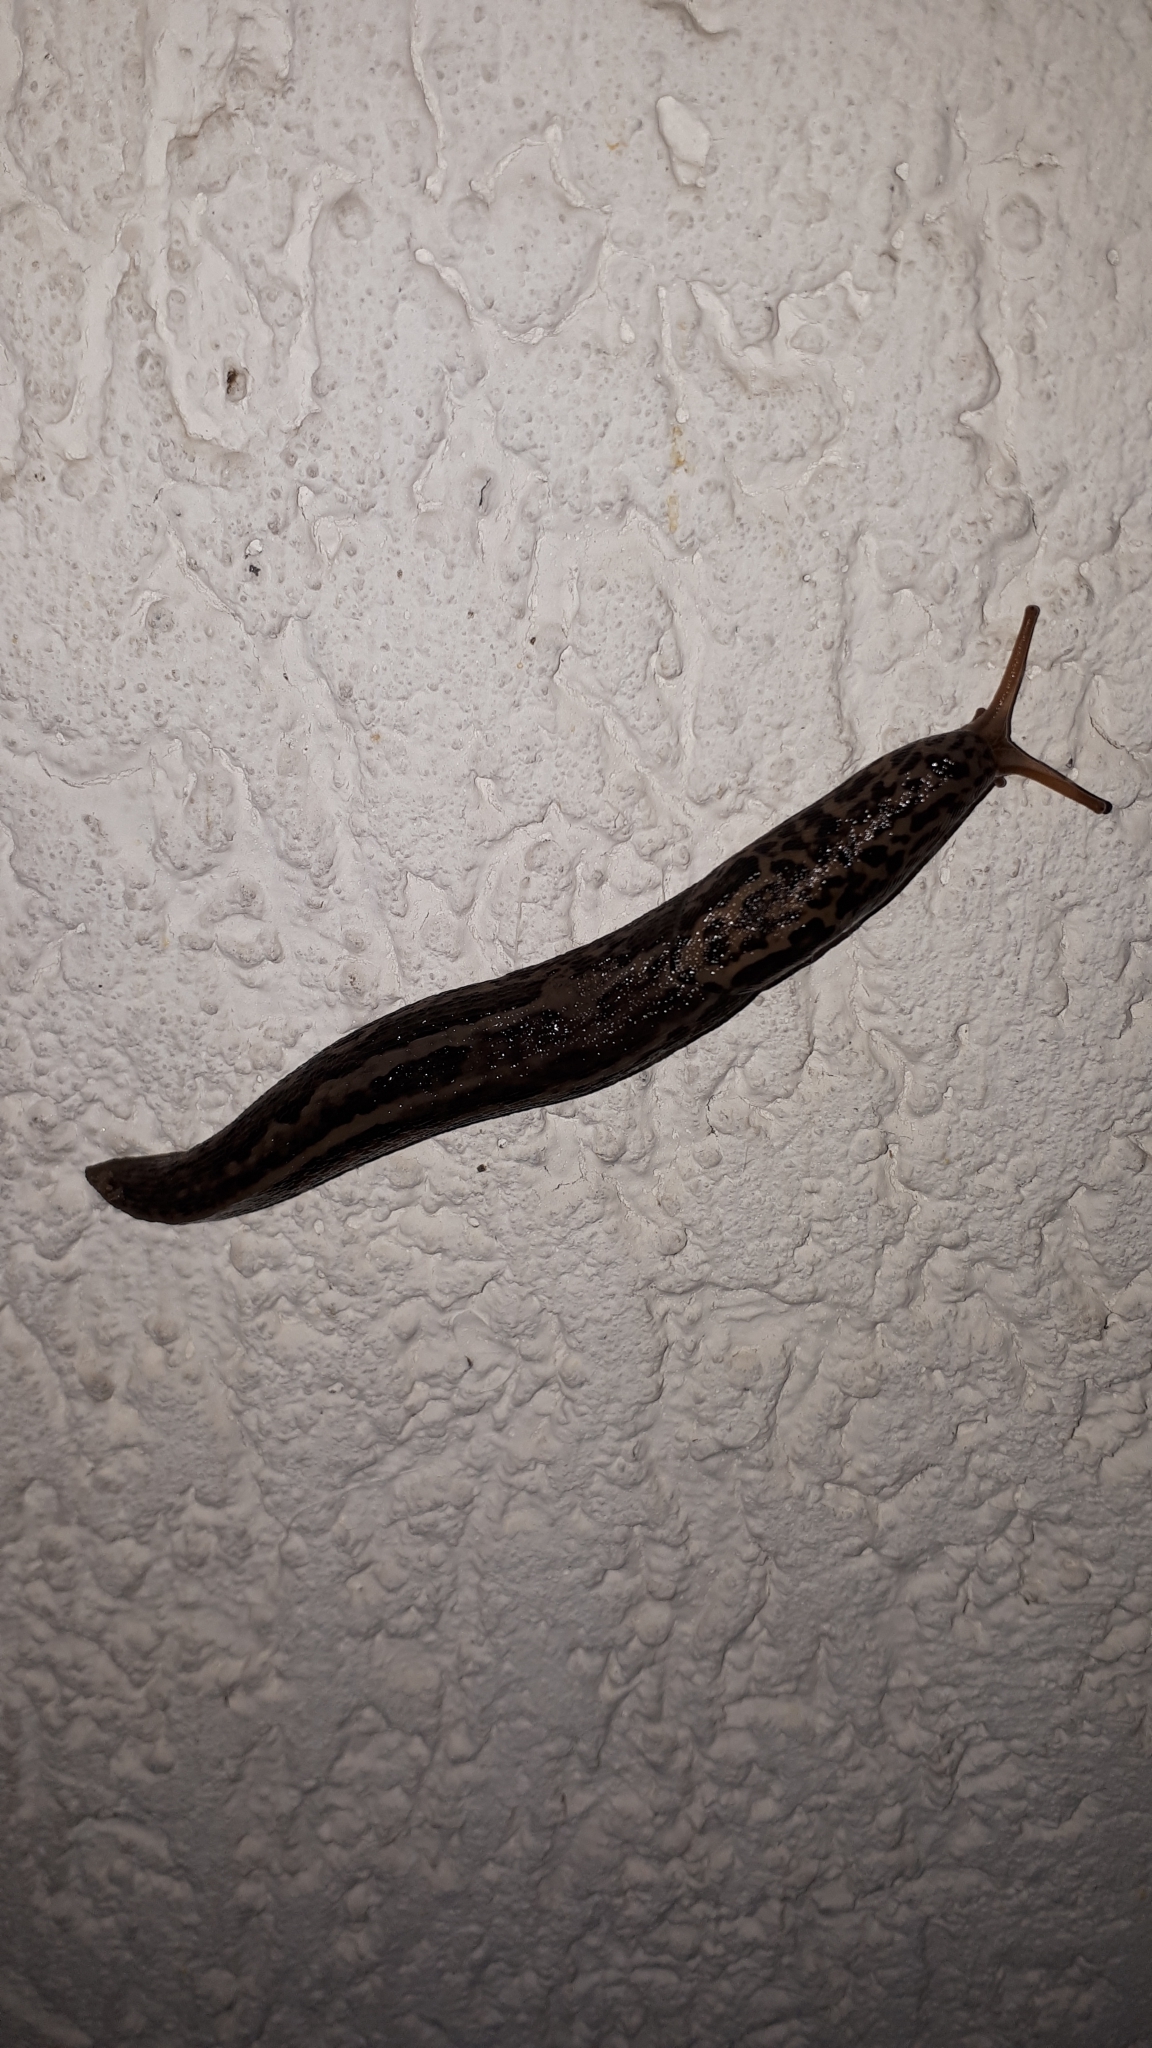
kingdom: Animalia
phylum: Mollusca
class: Gastropoda
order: Stylommatophora
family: Limacidae
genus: Limax
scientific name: Limax maximus
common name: Great grey slug
